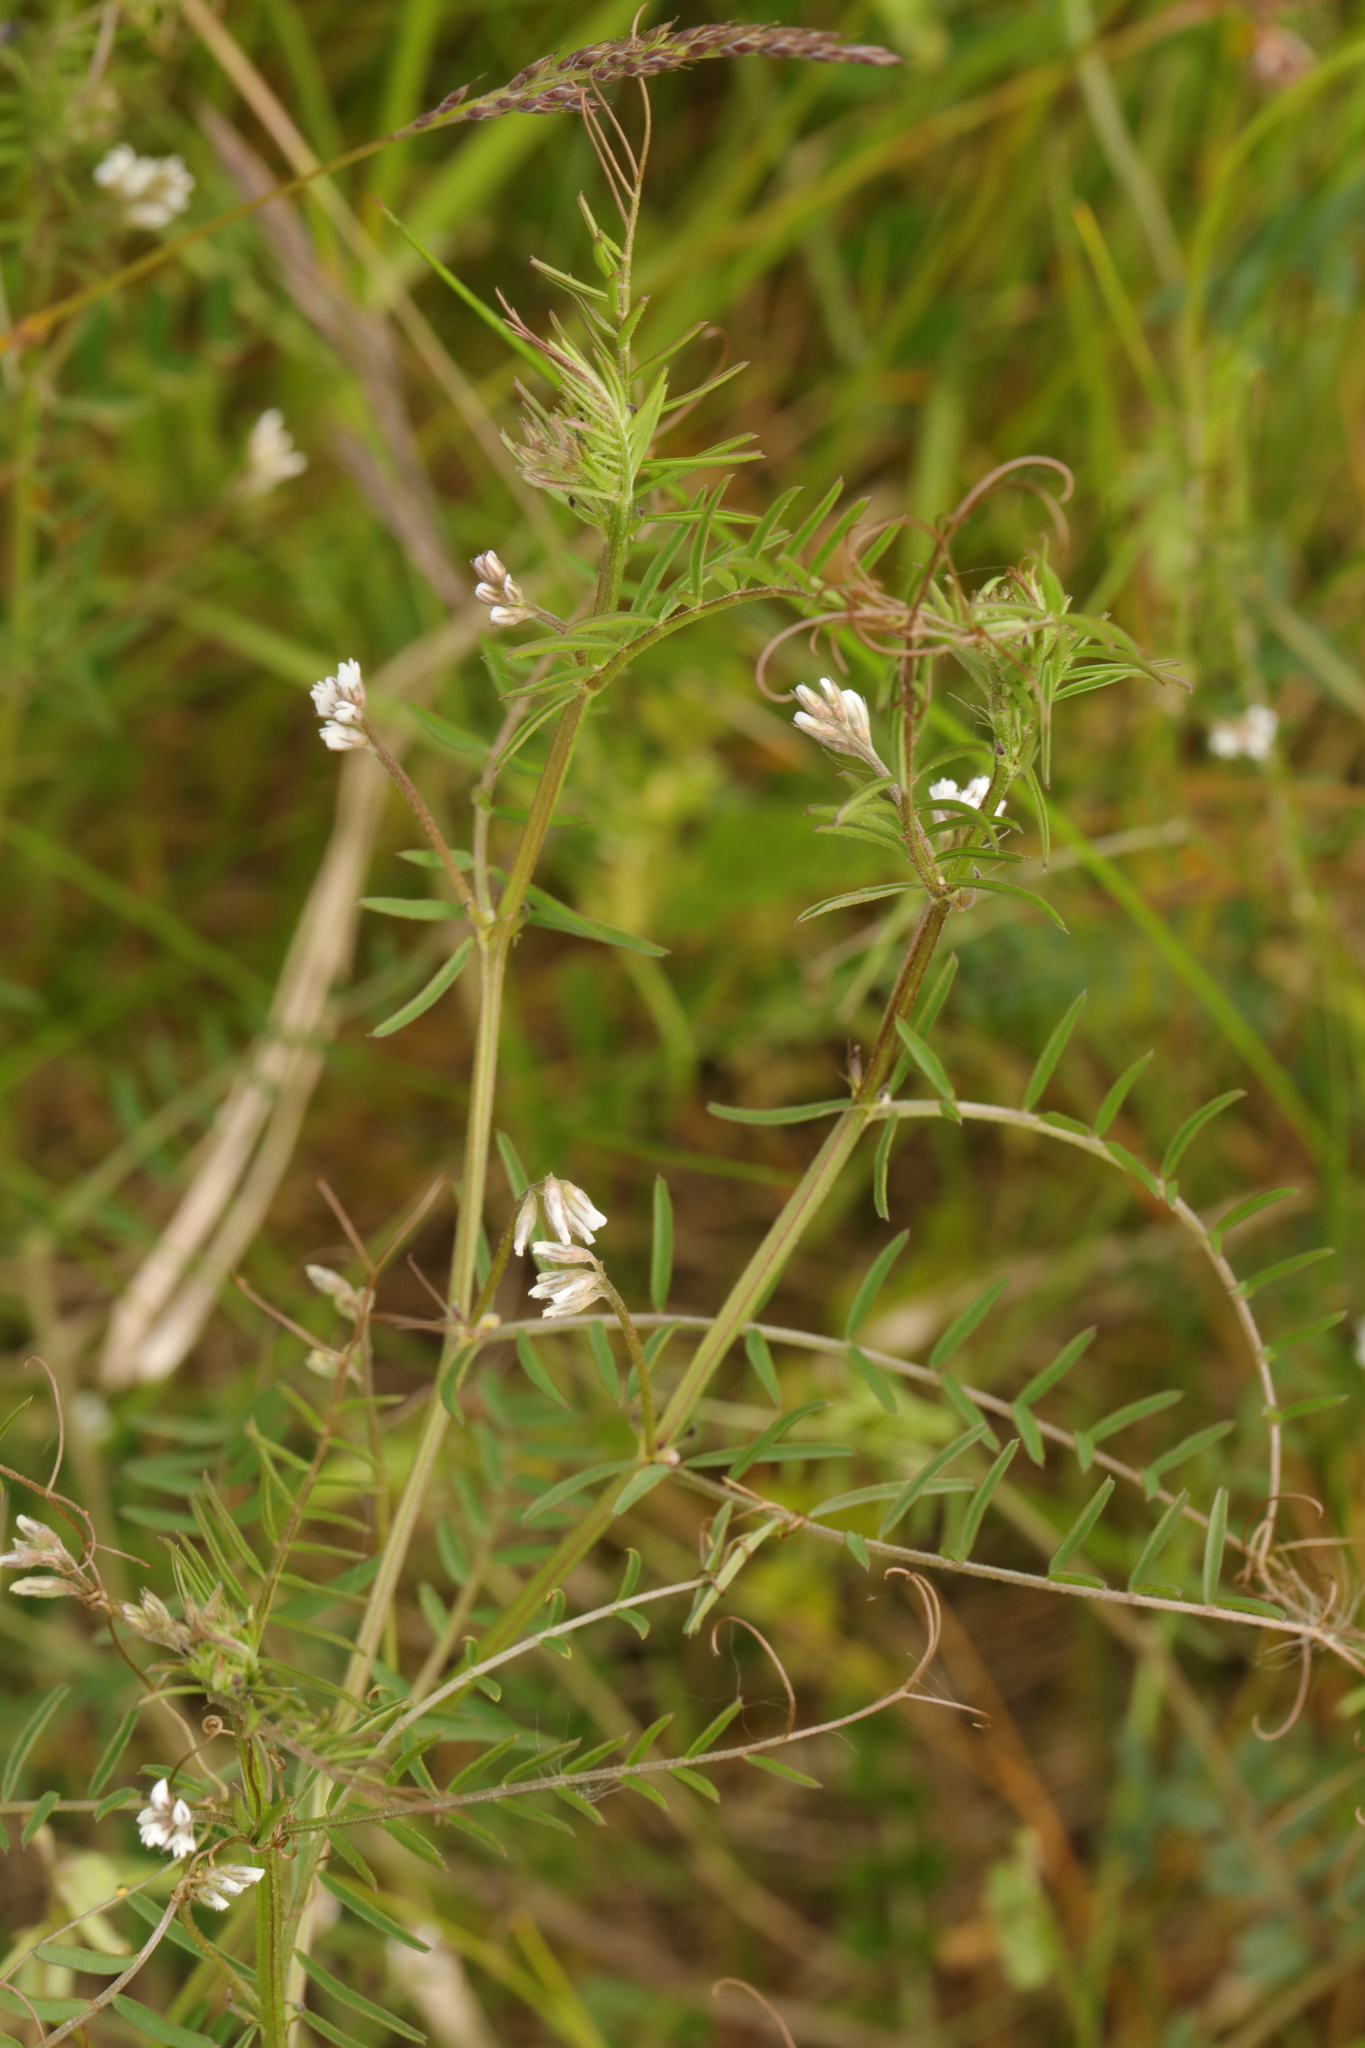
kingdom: Plantae
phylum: Tracheophyta
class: Magnoliopsida
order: Fabales
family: Fabaceae
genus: Vicia
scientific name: Vicia hirsuta
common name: Tiny vetch
